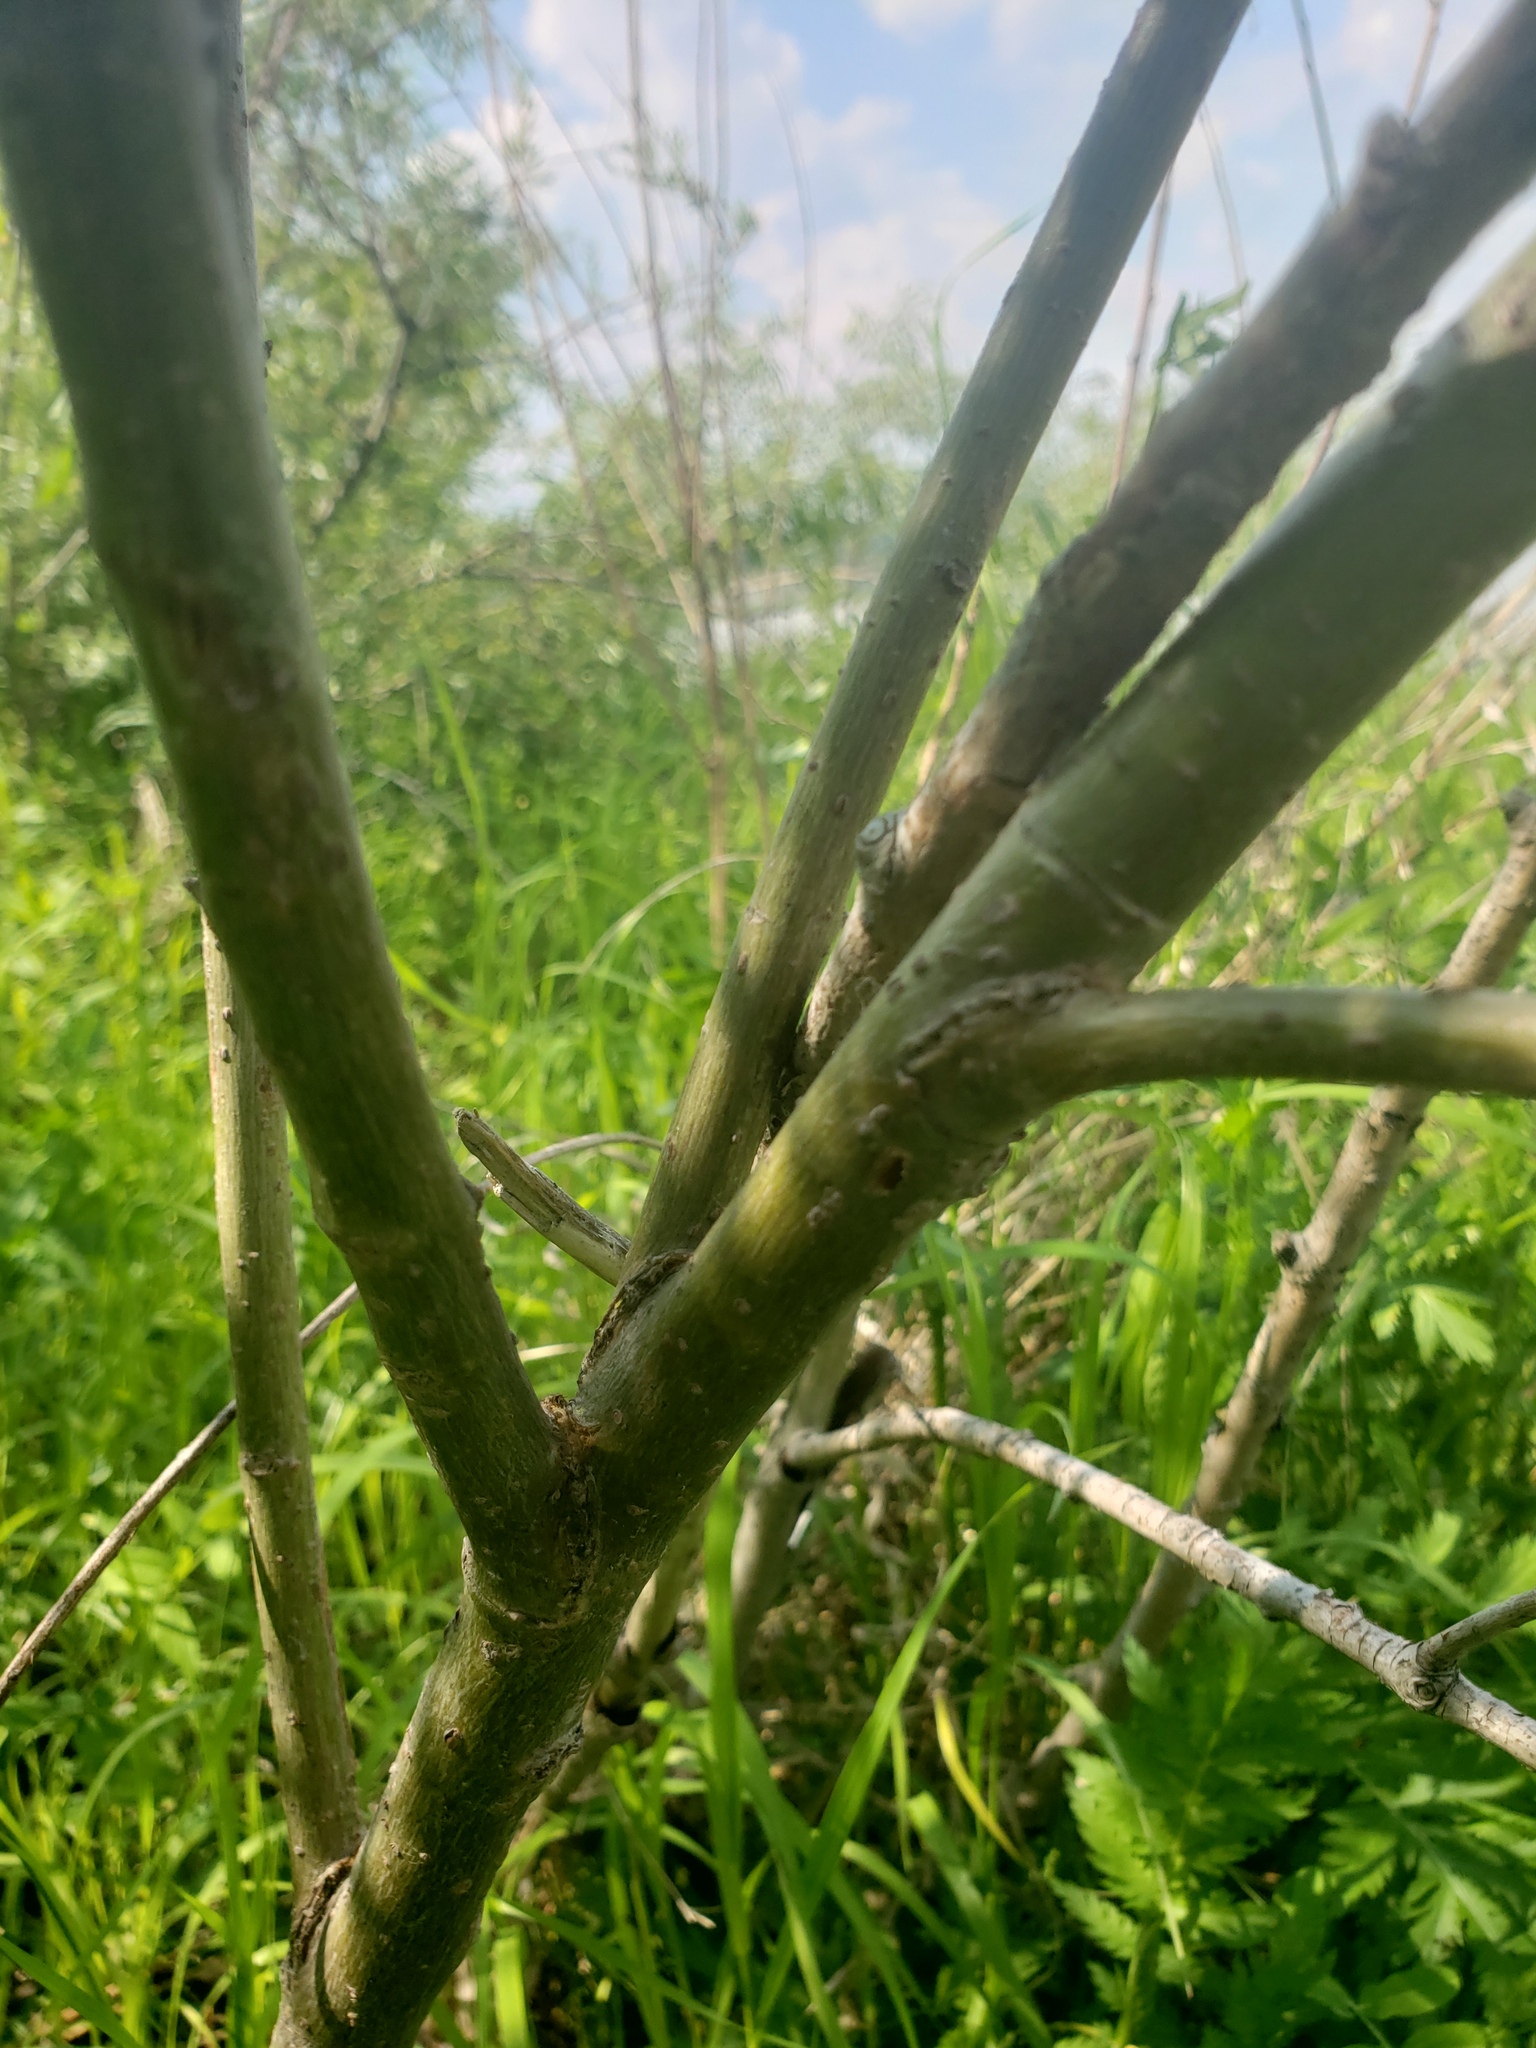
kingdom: Plantae
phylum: Tracheophyta
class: Magnoliopsida
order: Malpighiales
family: Salicaceae
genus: Salix
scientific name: Salix interior
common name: Sandbar willow
